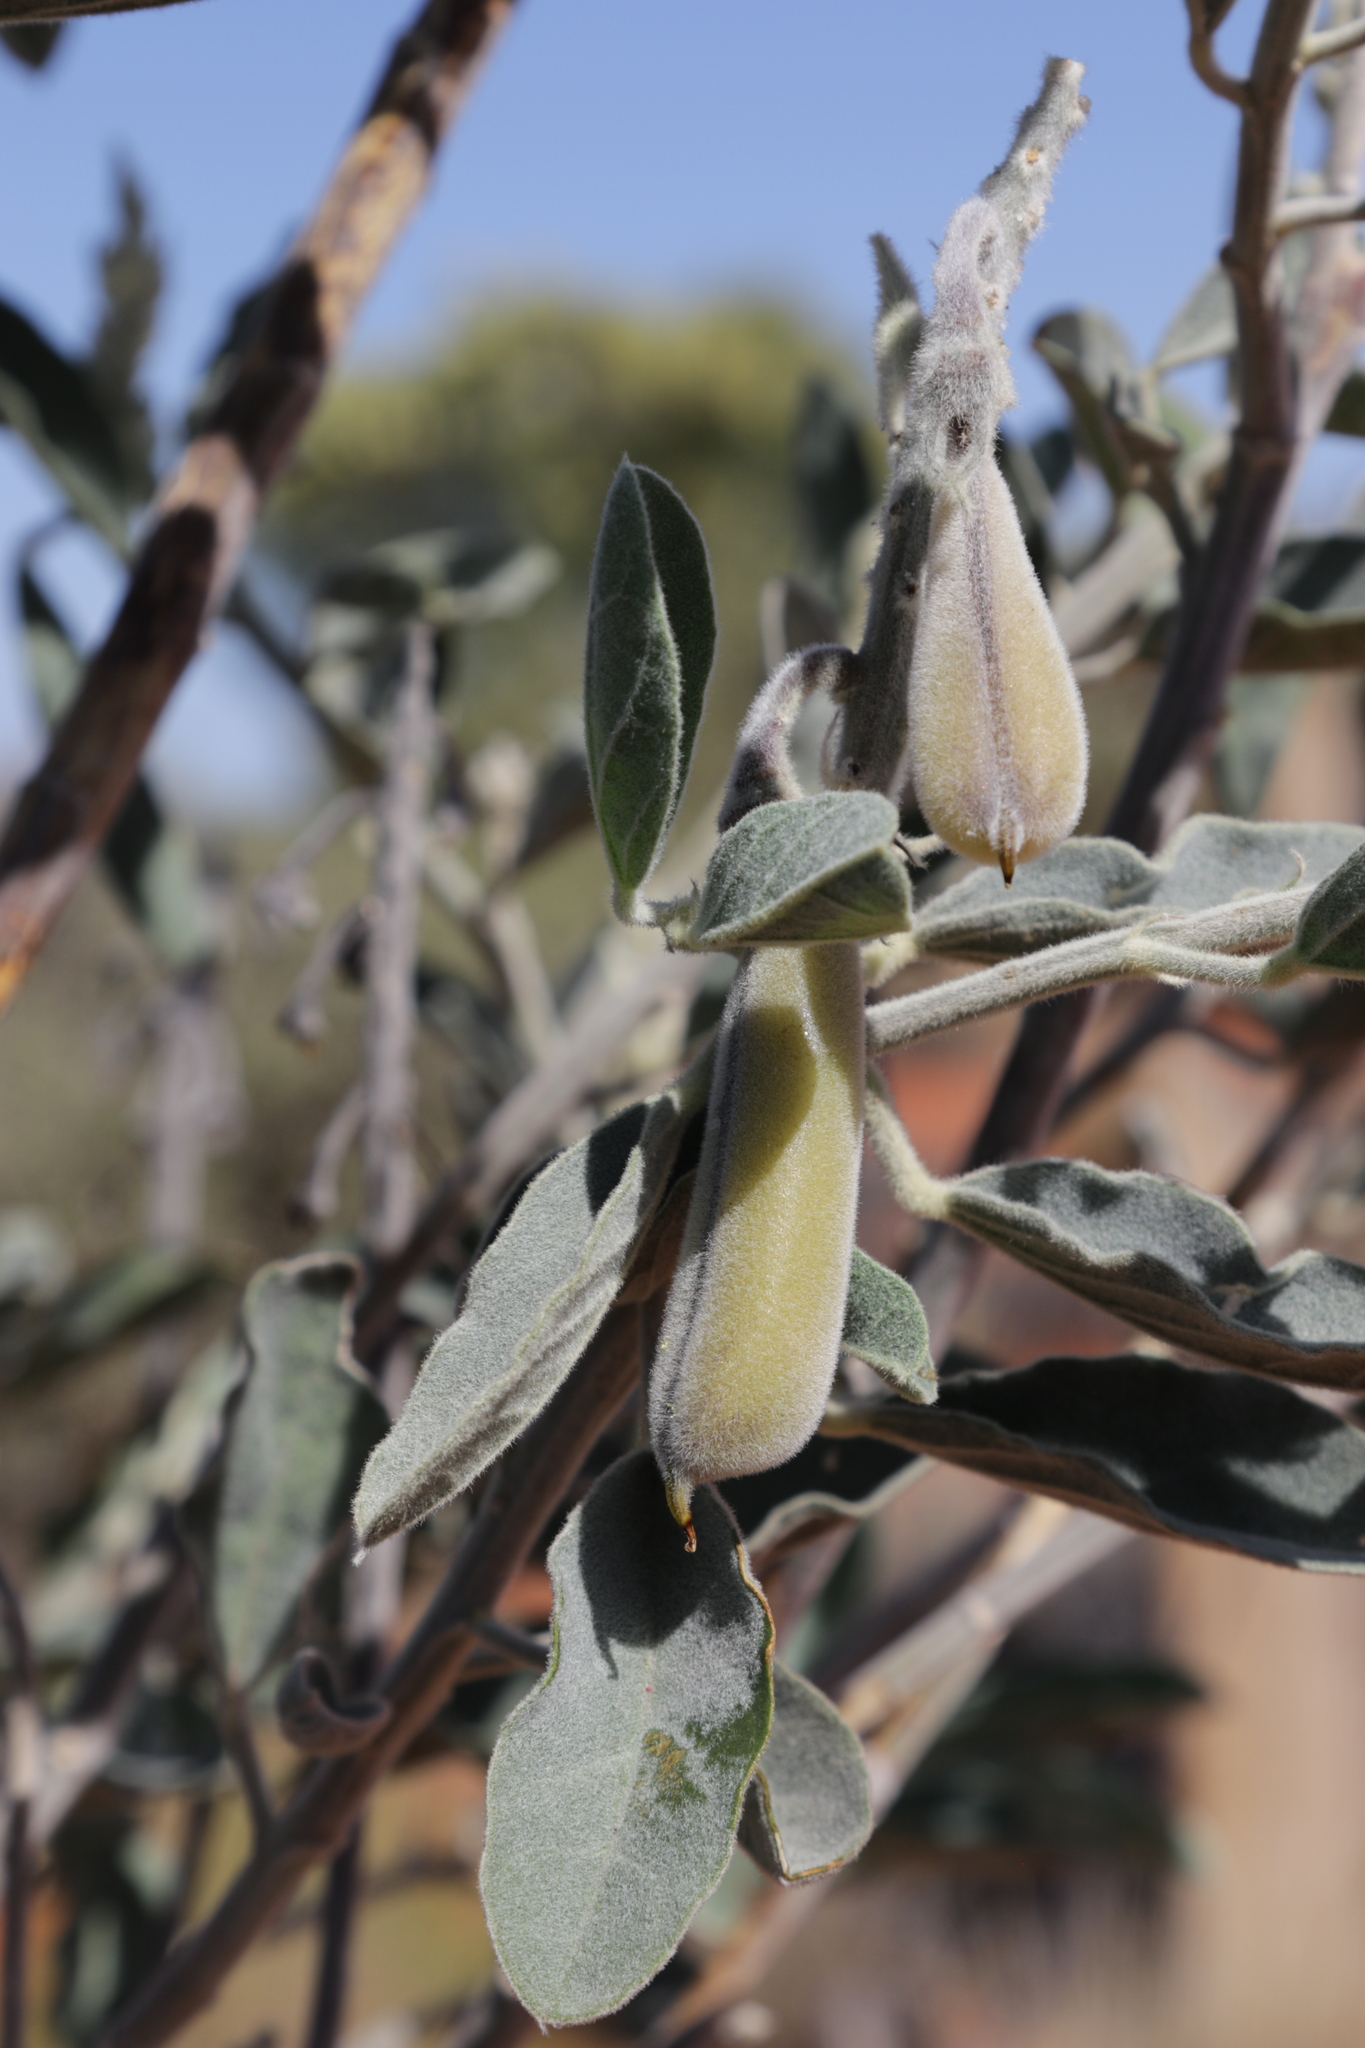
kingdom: Plantae
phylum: Tracheophyta
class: Magnoliopsida
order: Fabales
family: Fabaceae
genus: Crotalaria
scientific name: Crotalaria cunninghamii
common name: Birdflower rattlepod
